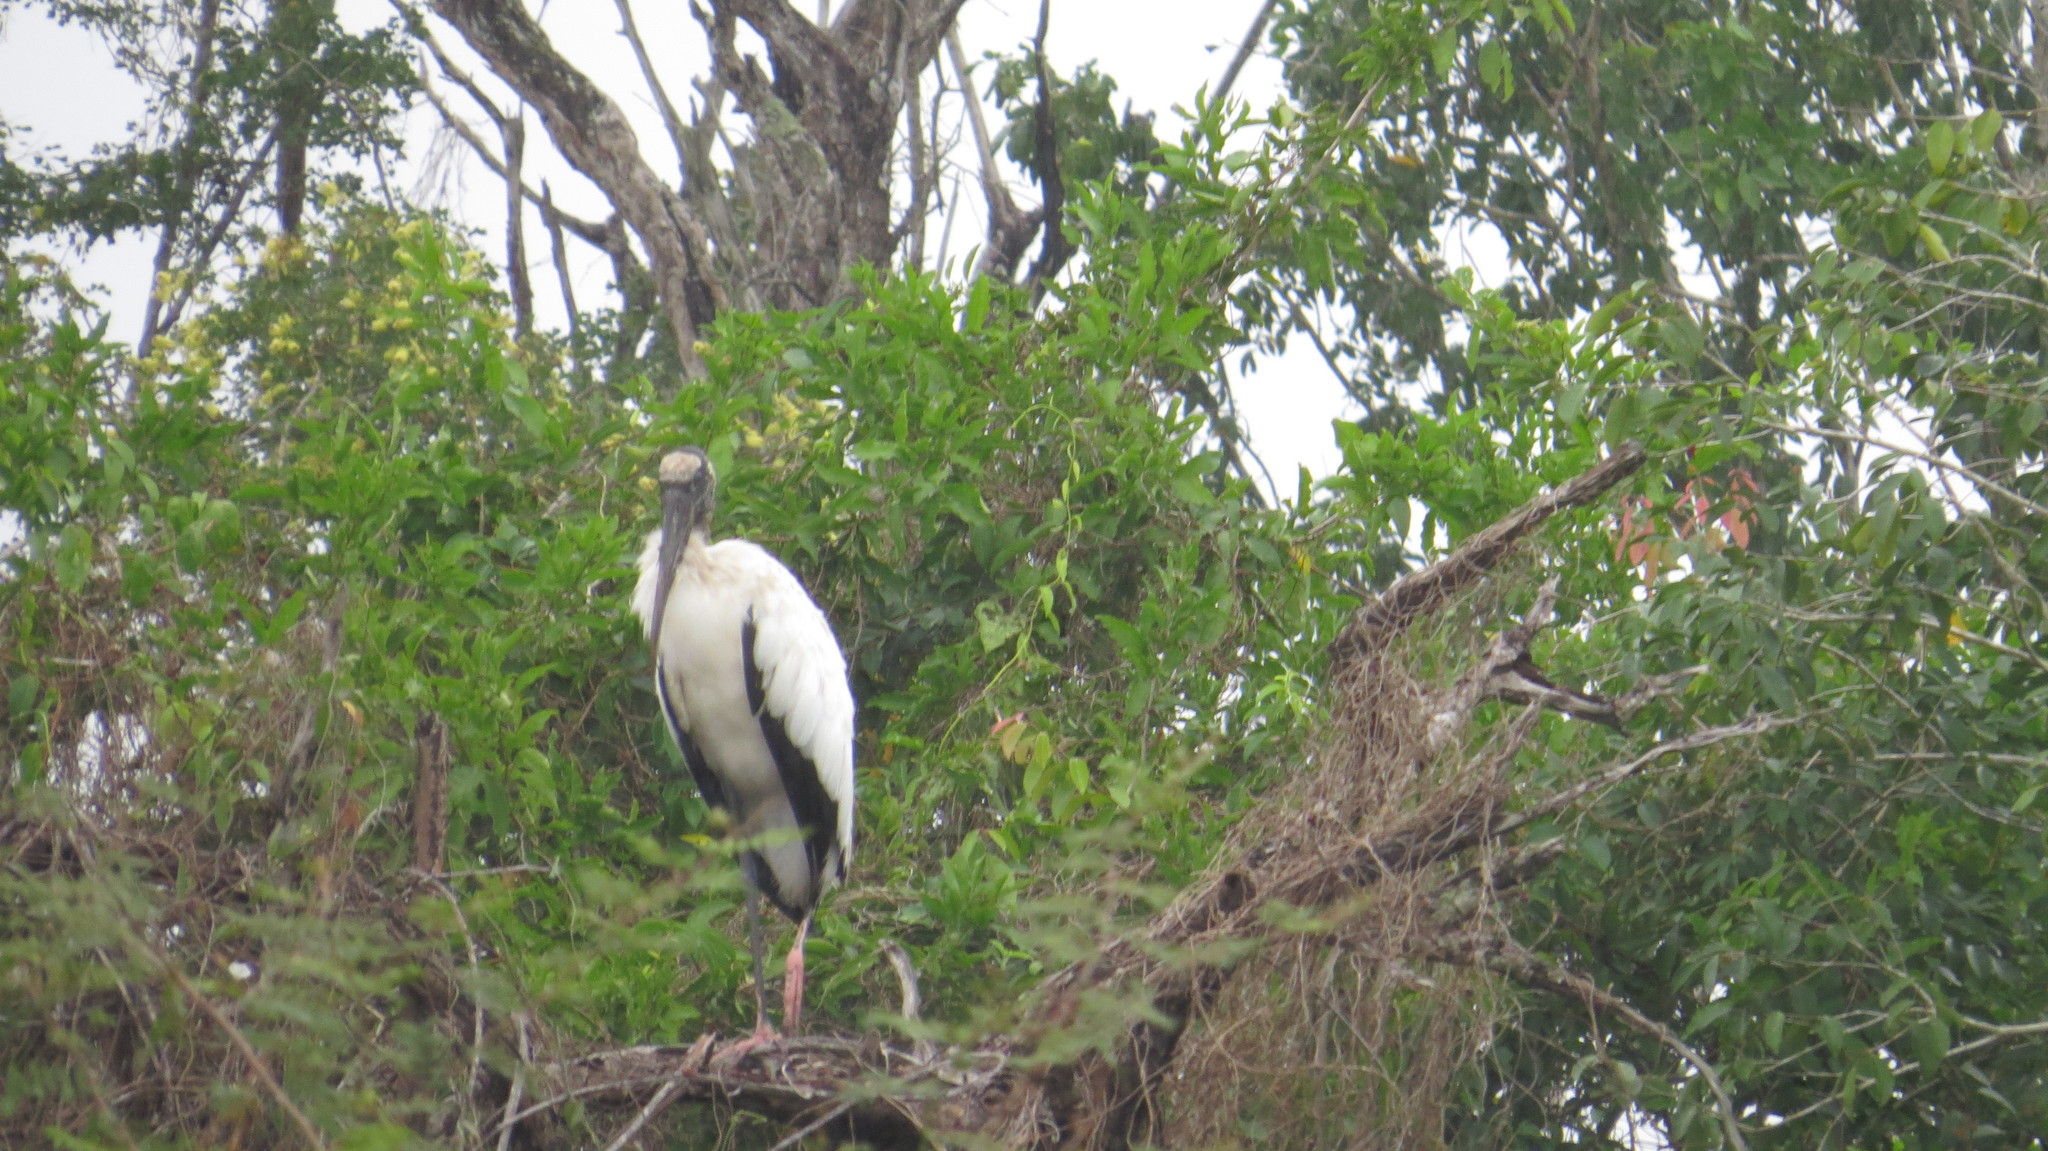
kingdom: Animalia
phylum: Chordata
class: Aves
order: Ciconiiformes
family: Ciconiidae
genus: Mycteria
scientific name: Mycteria americana
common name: Wood stork
